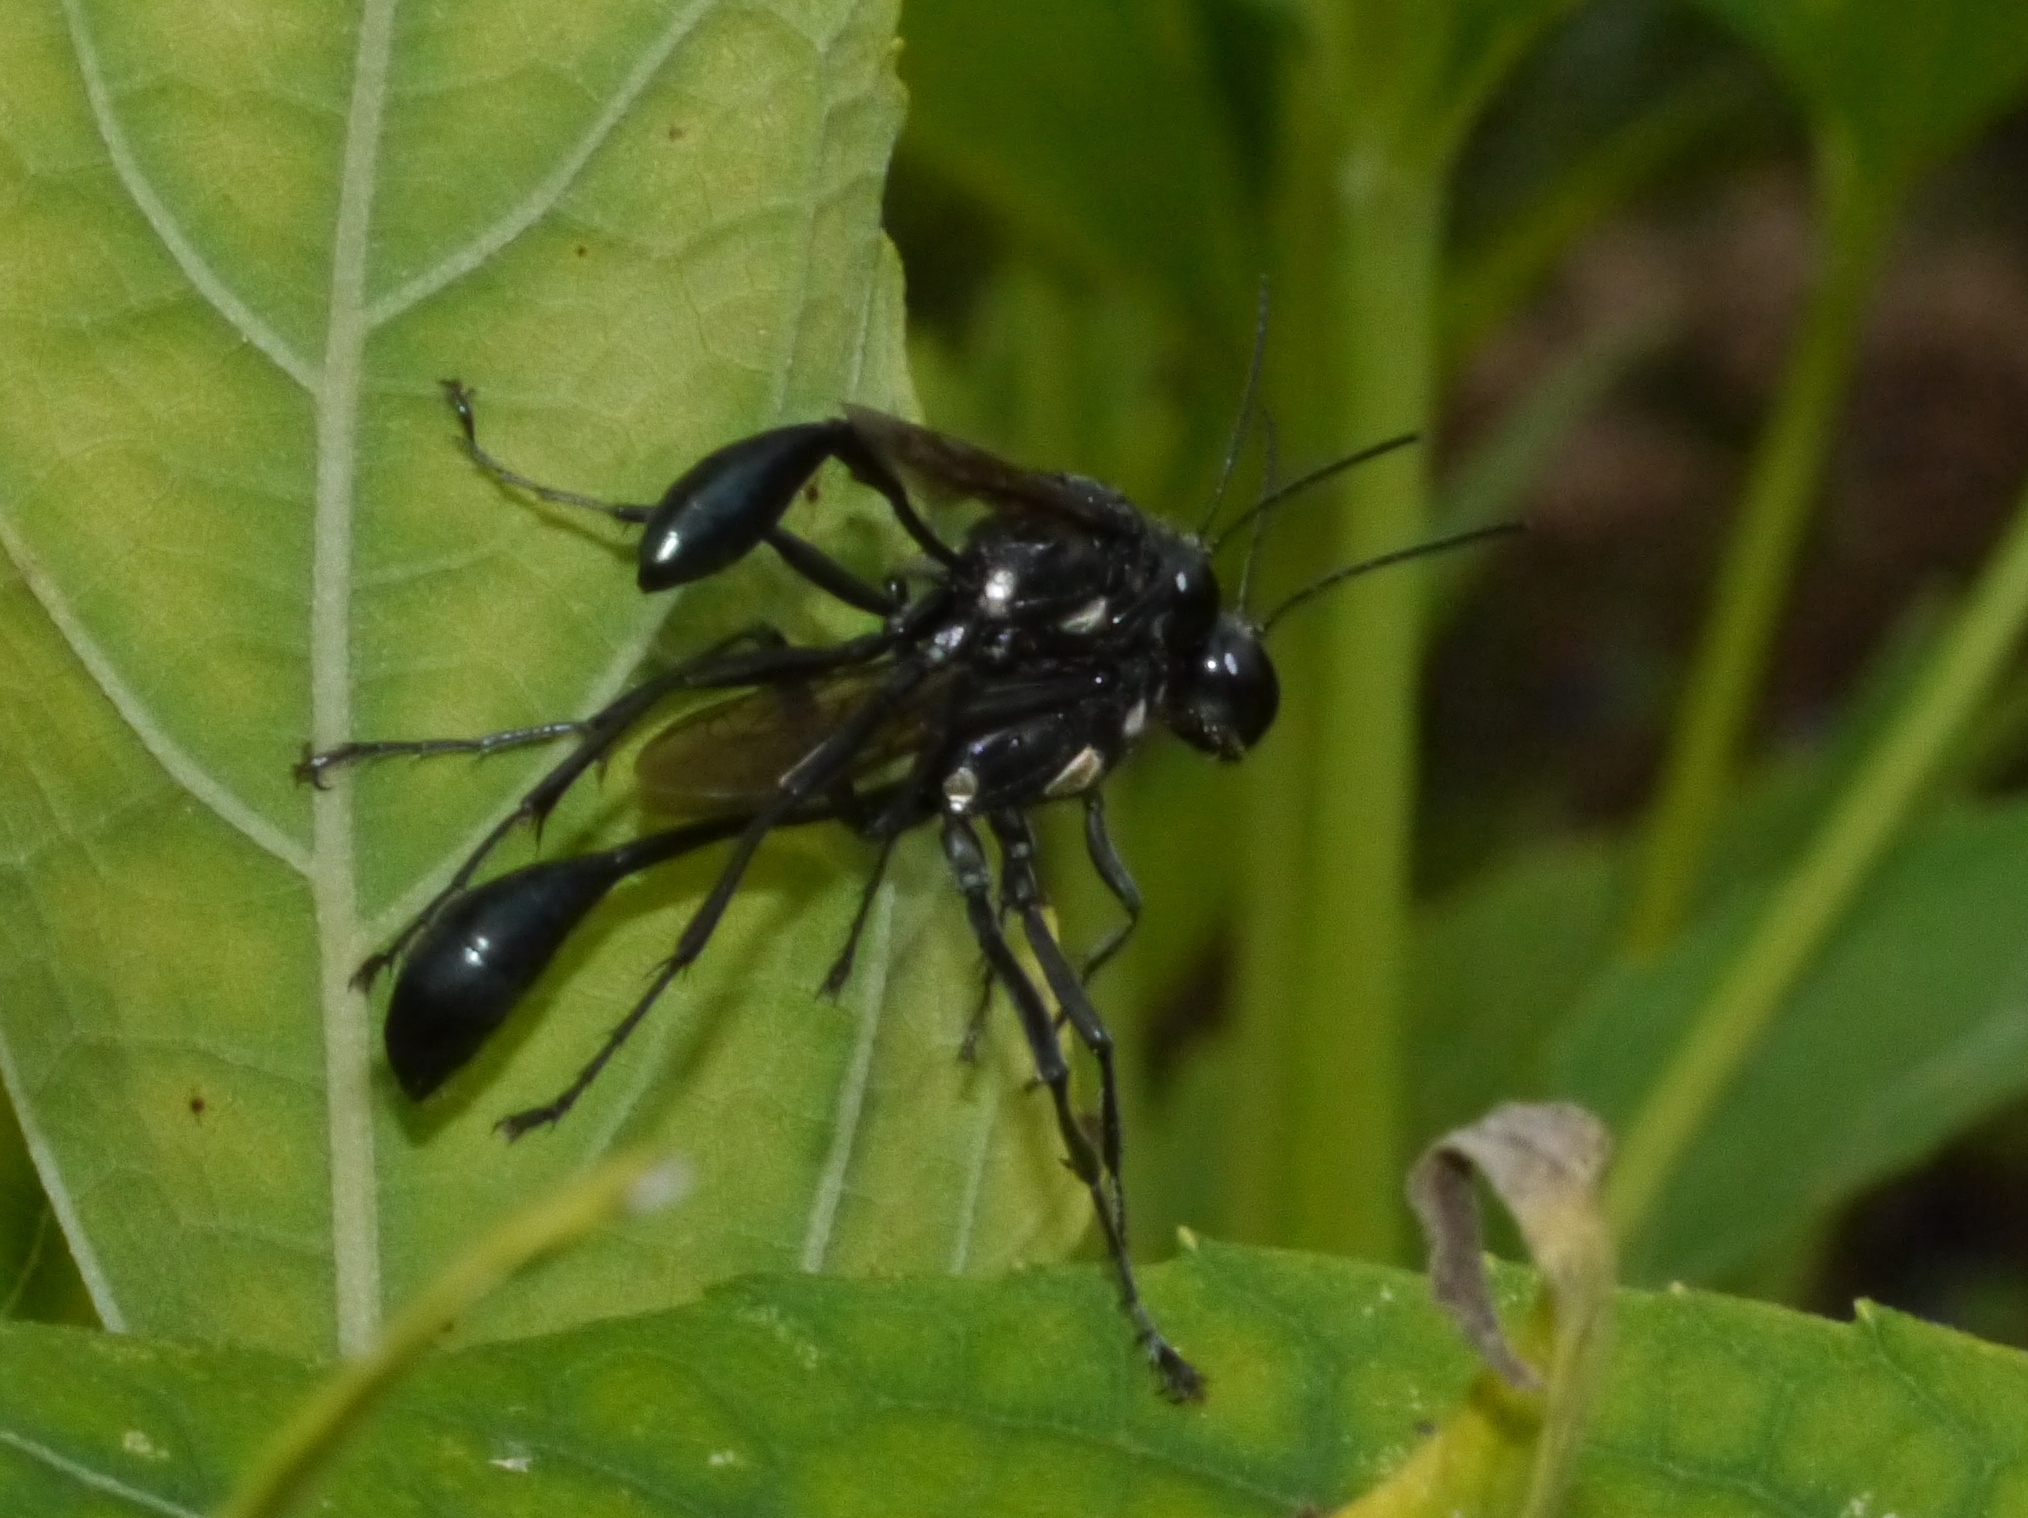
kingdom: Animalia
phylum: Arthropoda
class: Insecta
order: Hymenoptera
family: Sphecidae
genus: Eremnophila
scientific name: Eremnophila aureonotata
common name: Gold-marked thread-waisted wasp
